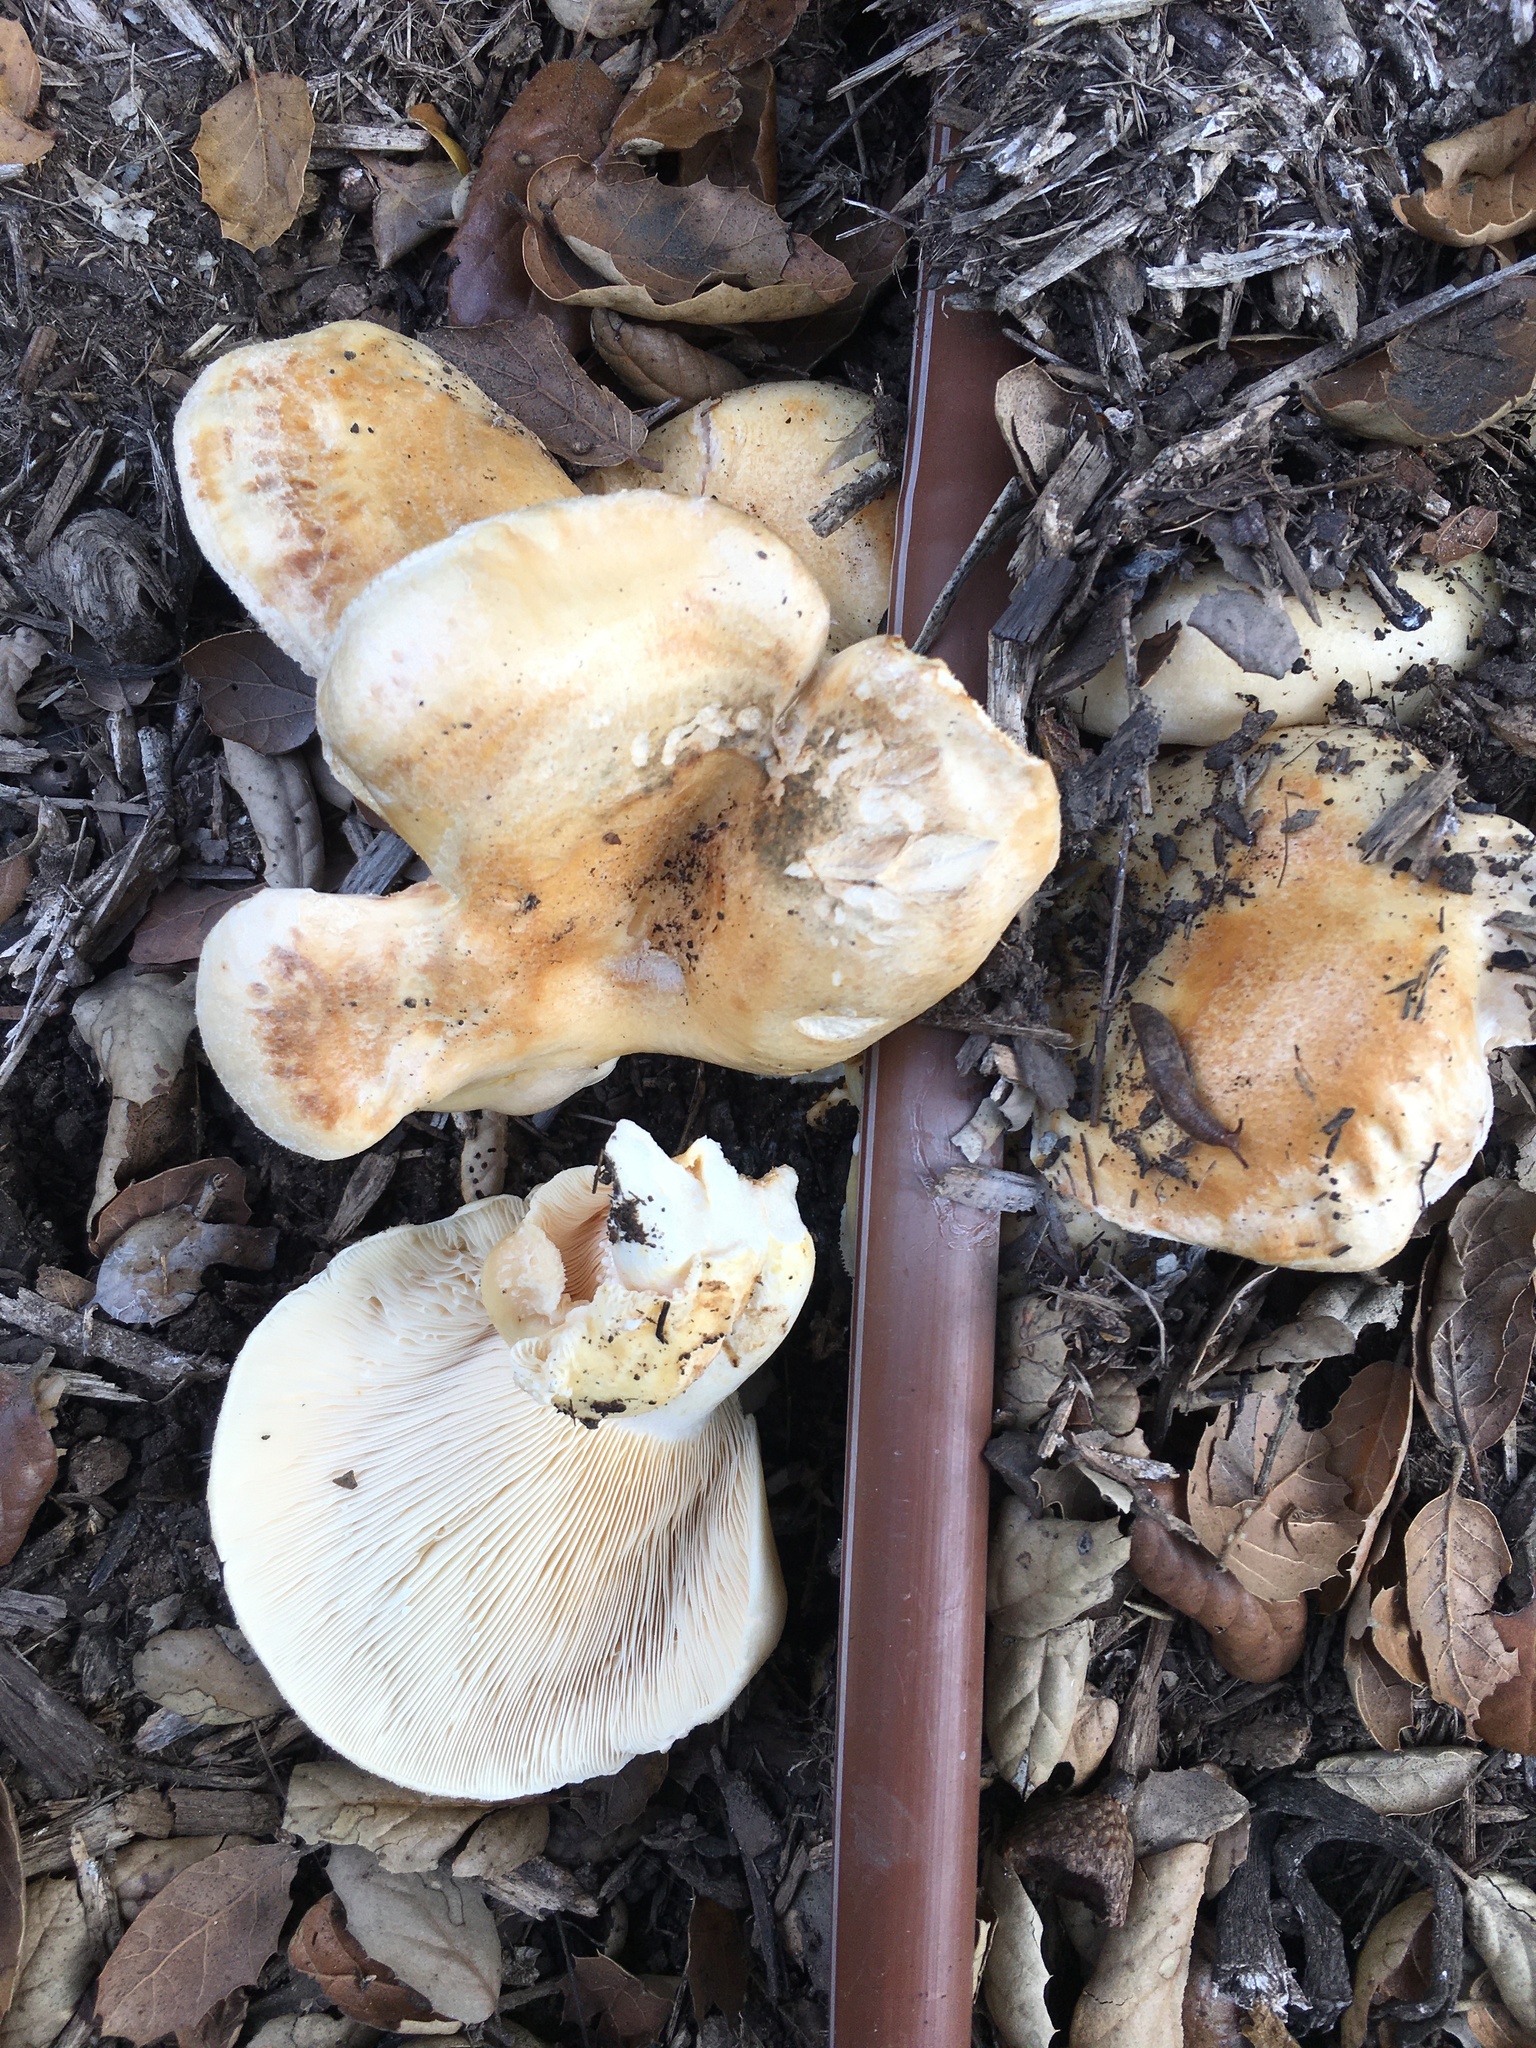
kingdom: Fungi
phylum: Basidiomycota
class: Agaricomycetes
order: Russulales
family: Russulaceae
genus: Lactarius
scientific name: Lactarius alnicola
